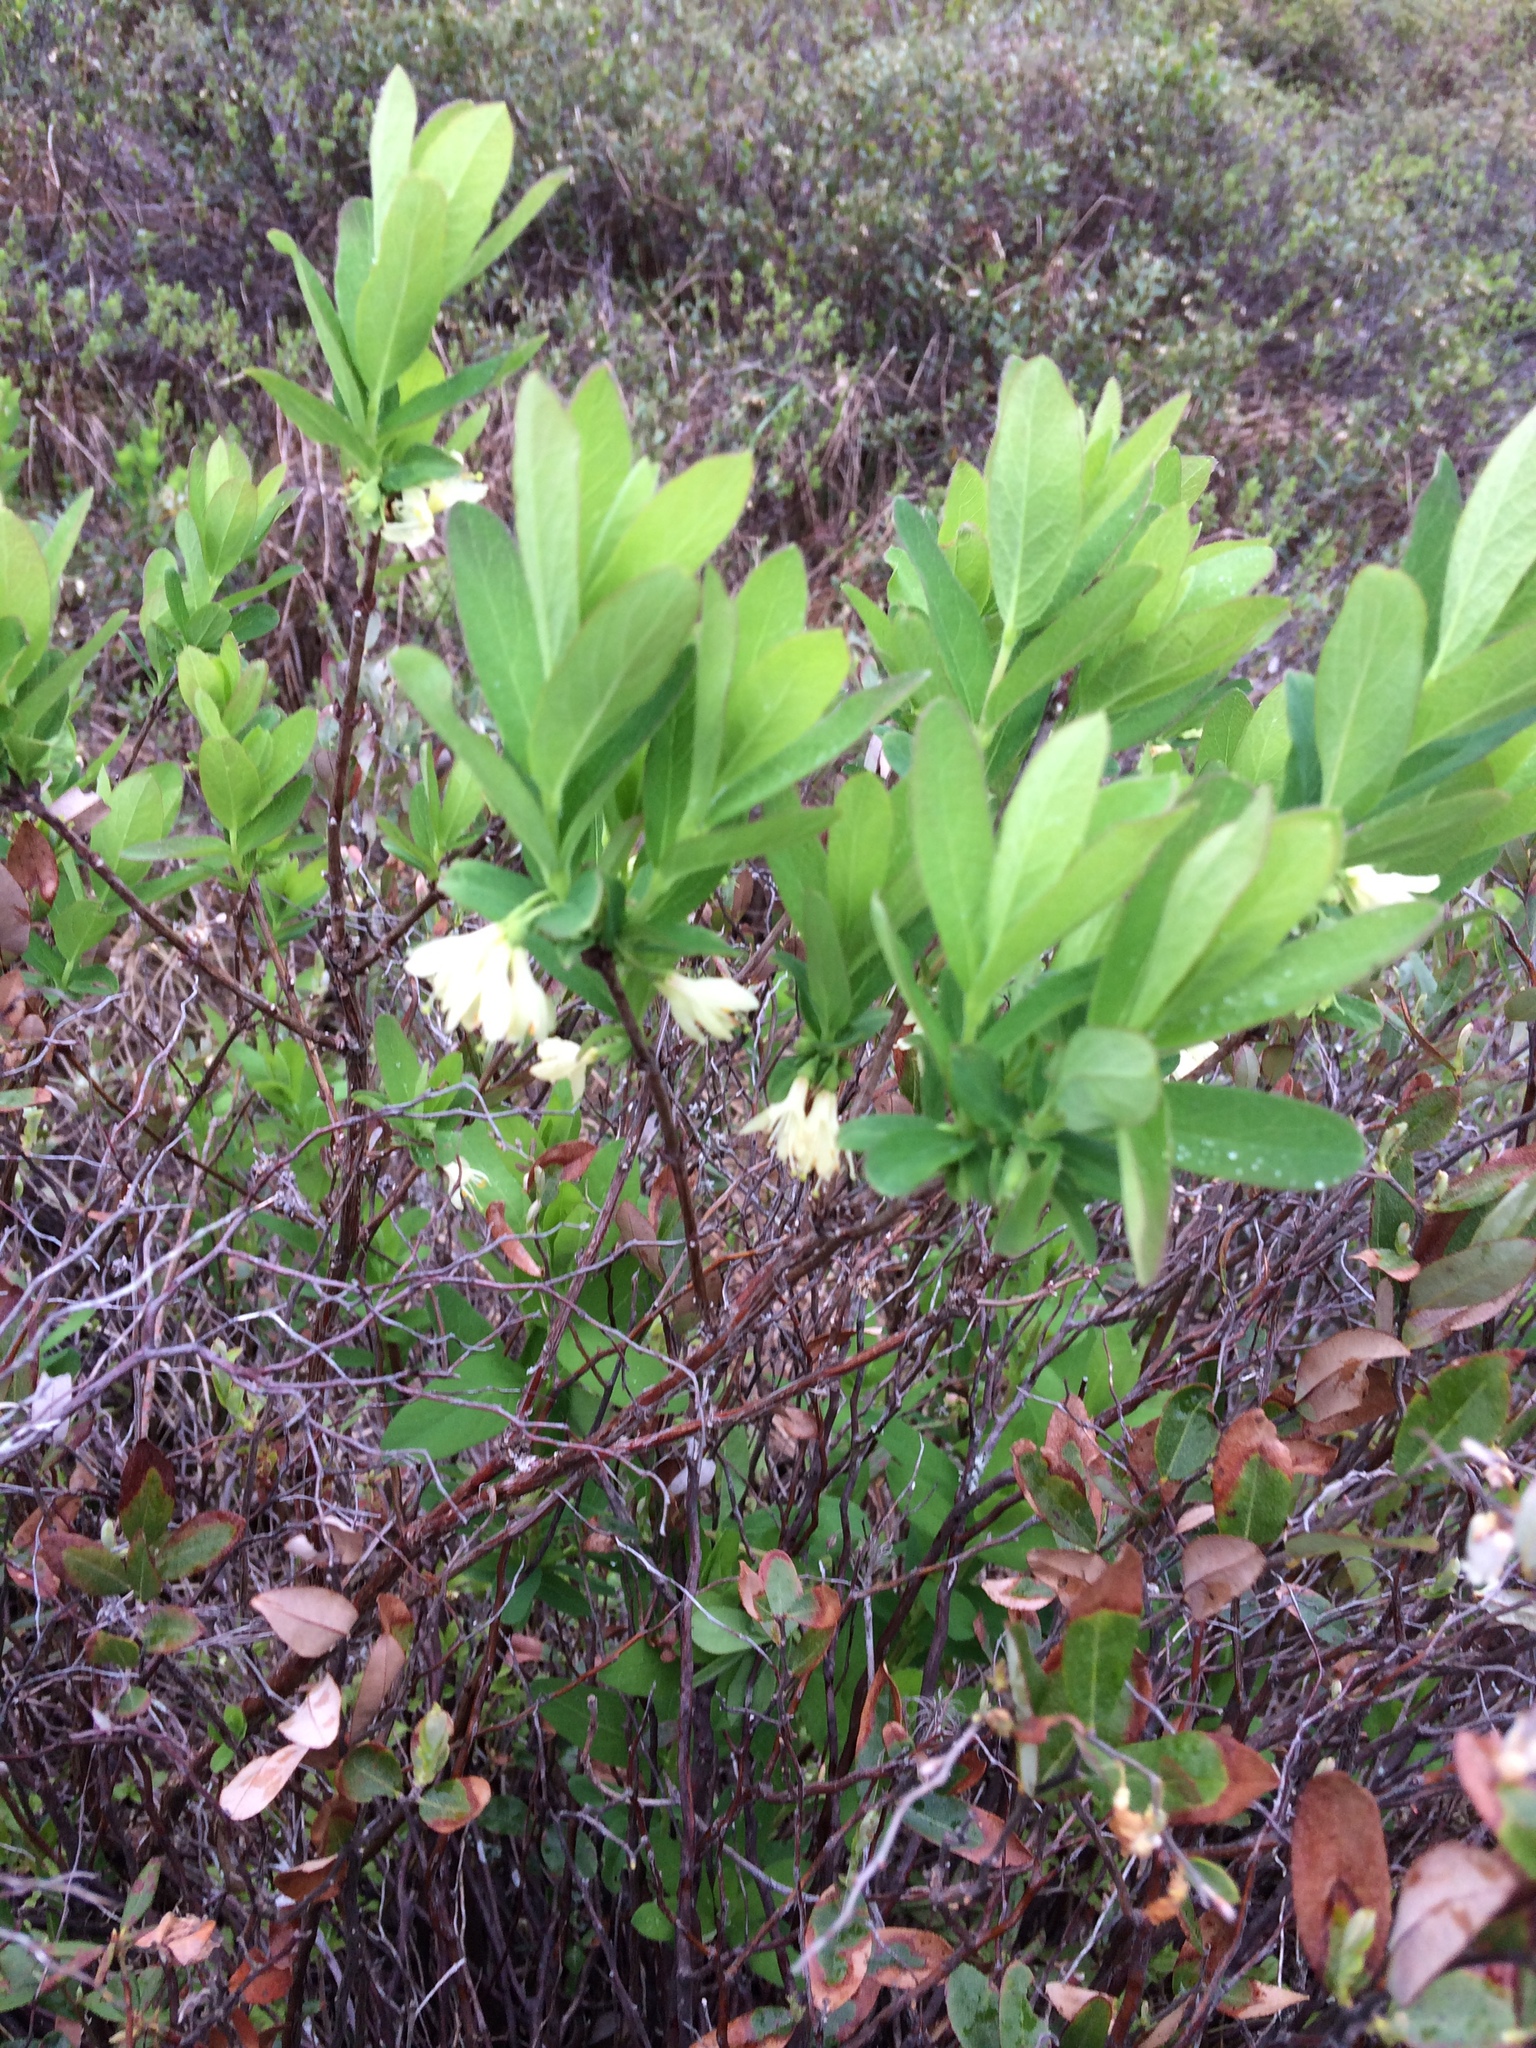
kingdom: Plantae
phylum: Tracheophyta
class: Magnoliopsida
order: Dipsacales
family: Caprifoliaceae
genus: Lonicera
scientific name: Lonicera villosa
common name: Mountain fly-honeysuckle
